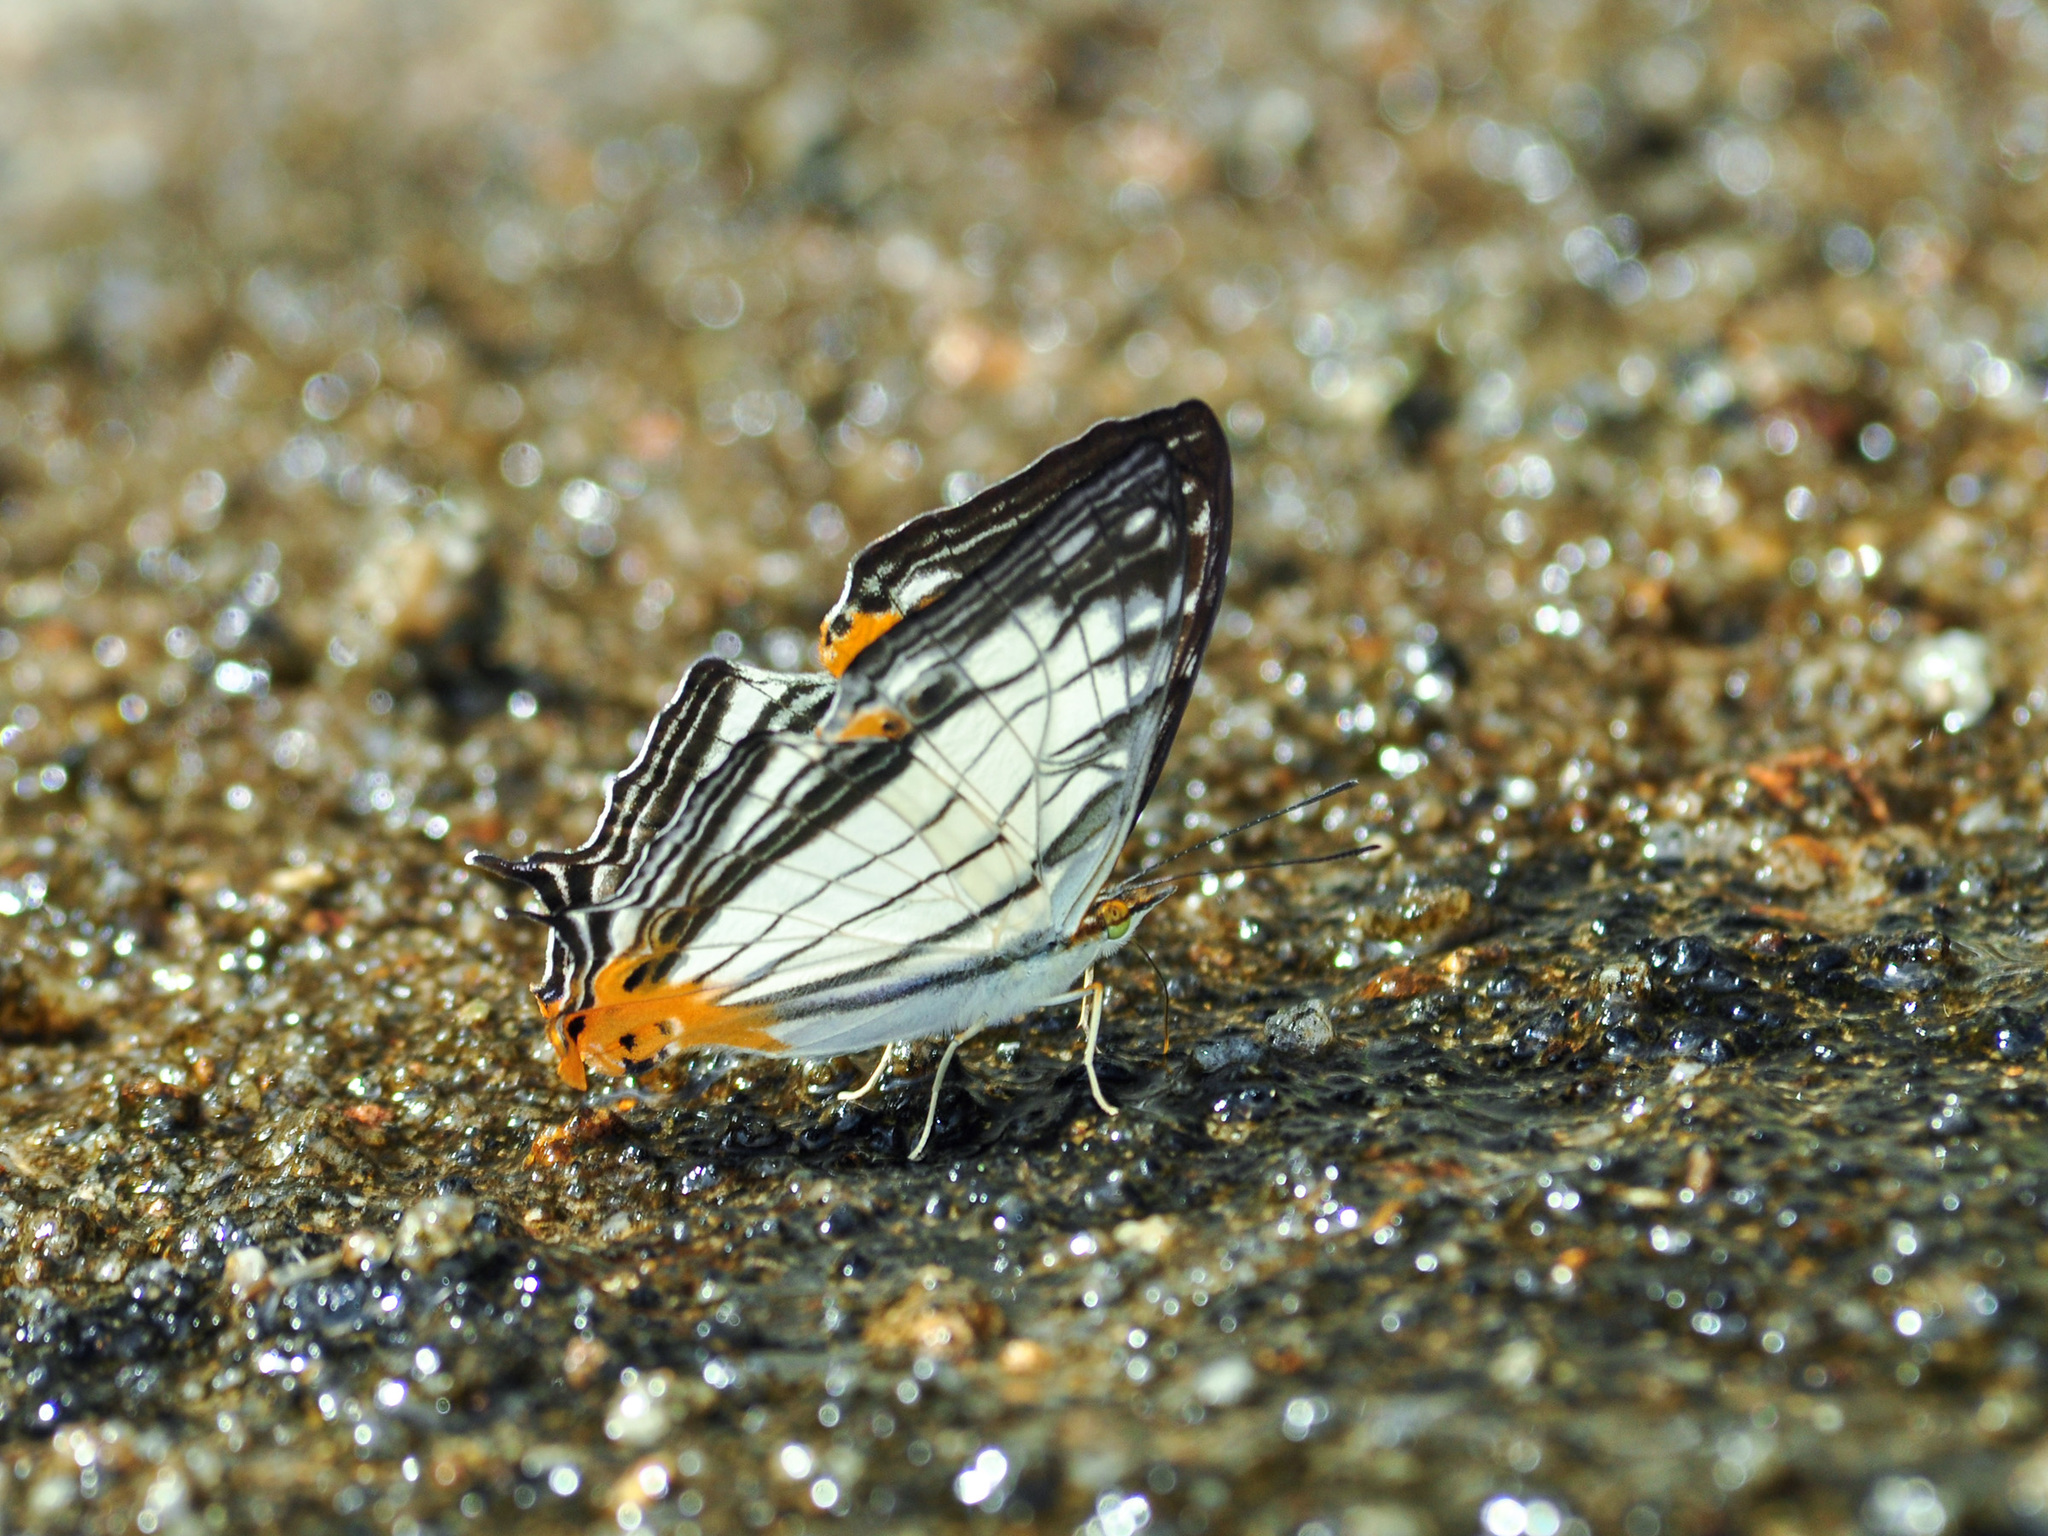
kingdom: Animalia
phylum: Arthropoda
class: Insecta
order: Lepidoptera
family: Nymphalidae
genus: Cyrestis
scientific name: Cyrestis maenalis
